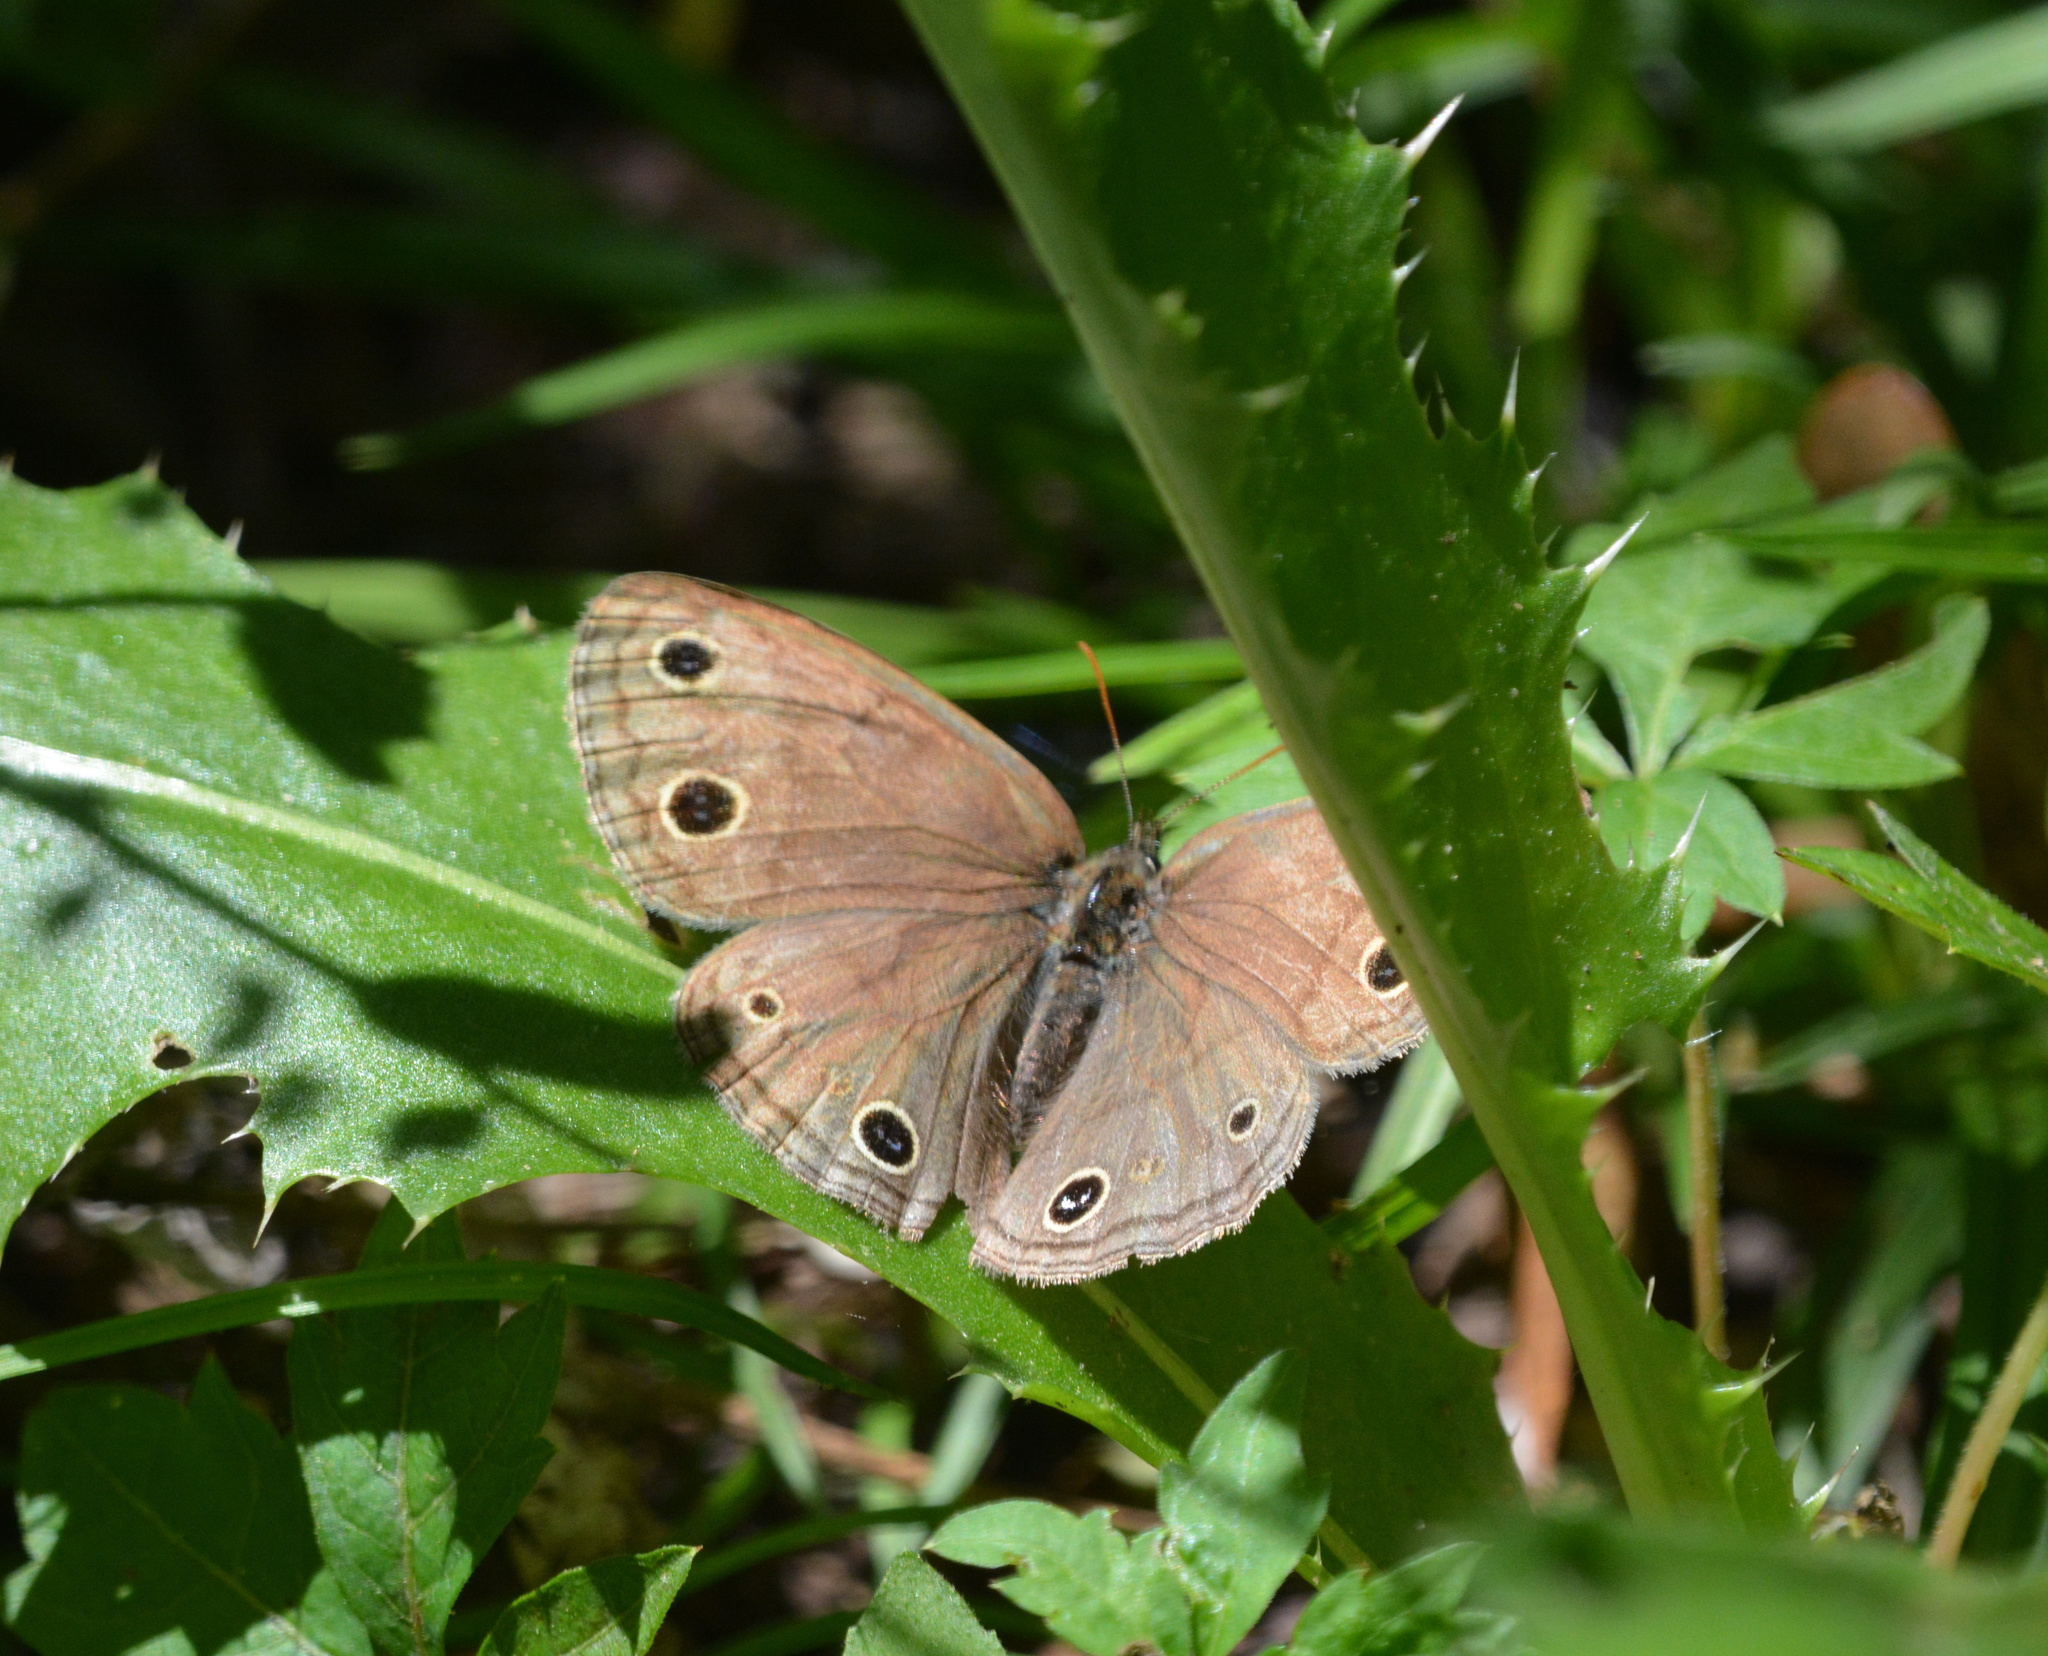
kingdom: Animalia
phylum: Arthropoda
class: Insecta
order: Lepidoptera
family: Nymphalidae
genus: Euptychia
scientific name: Euptychia cymela
